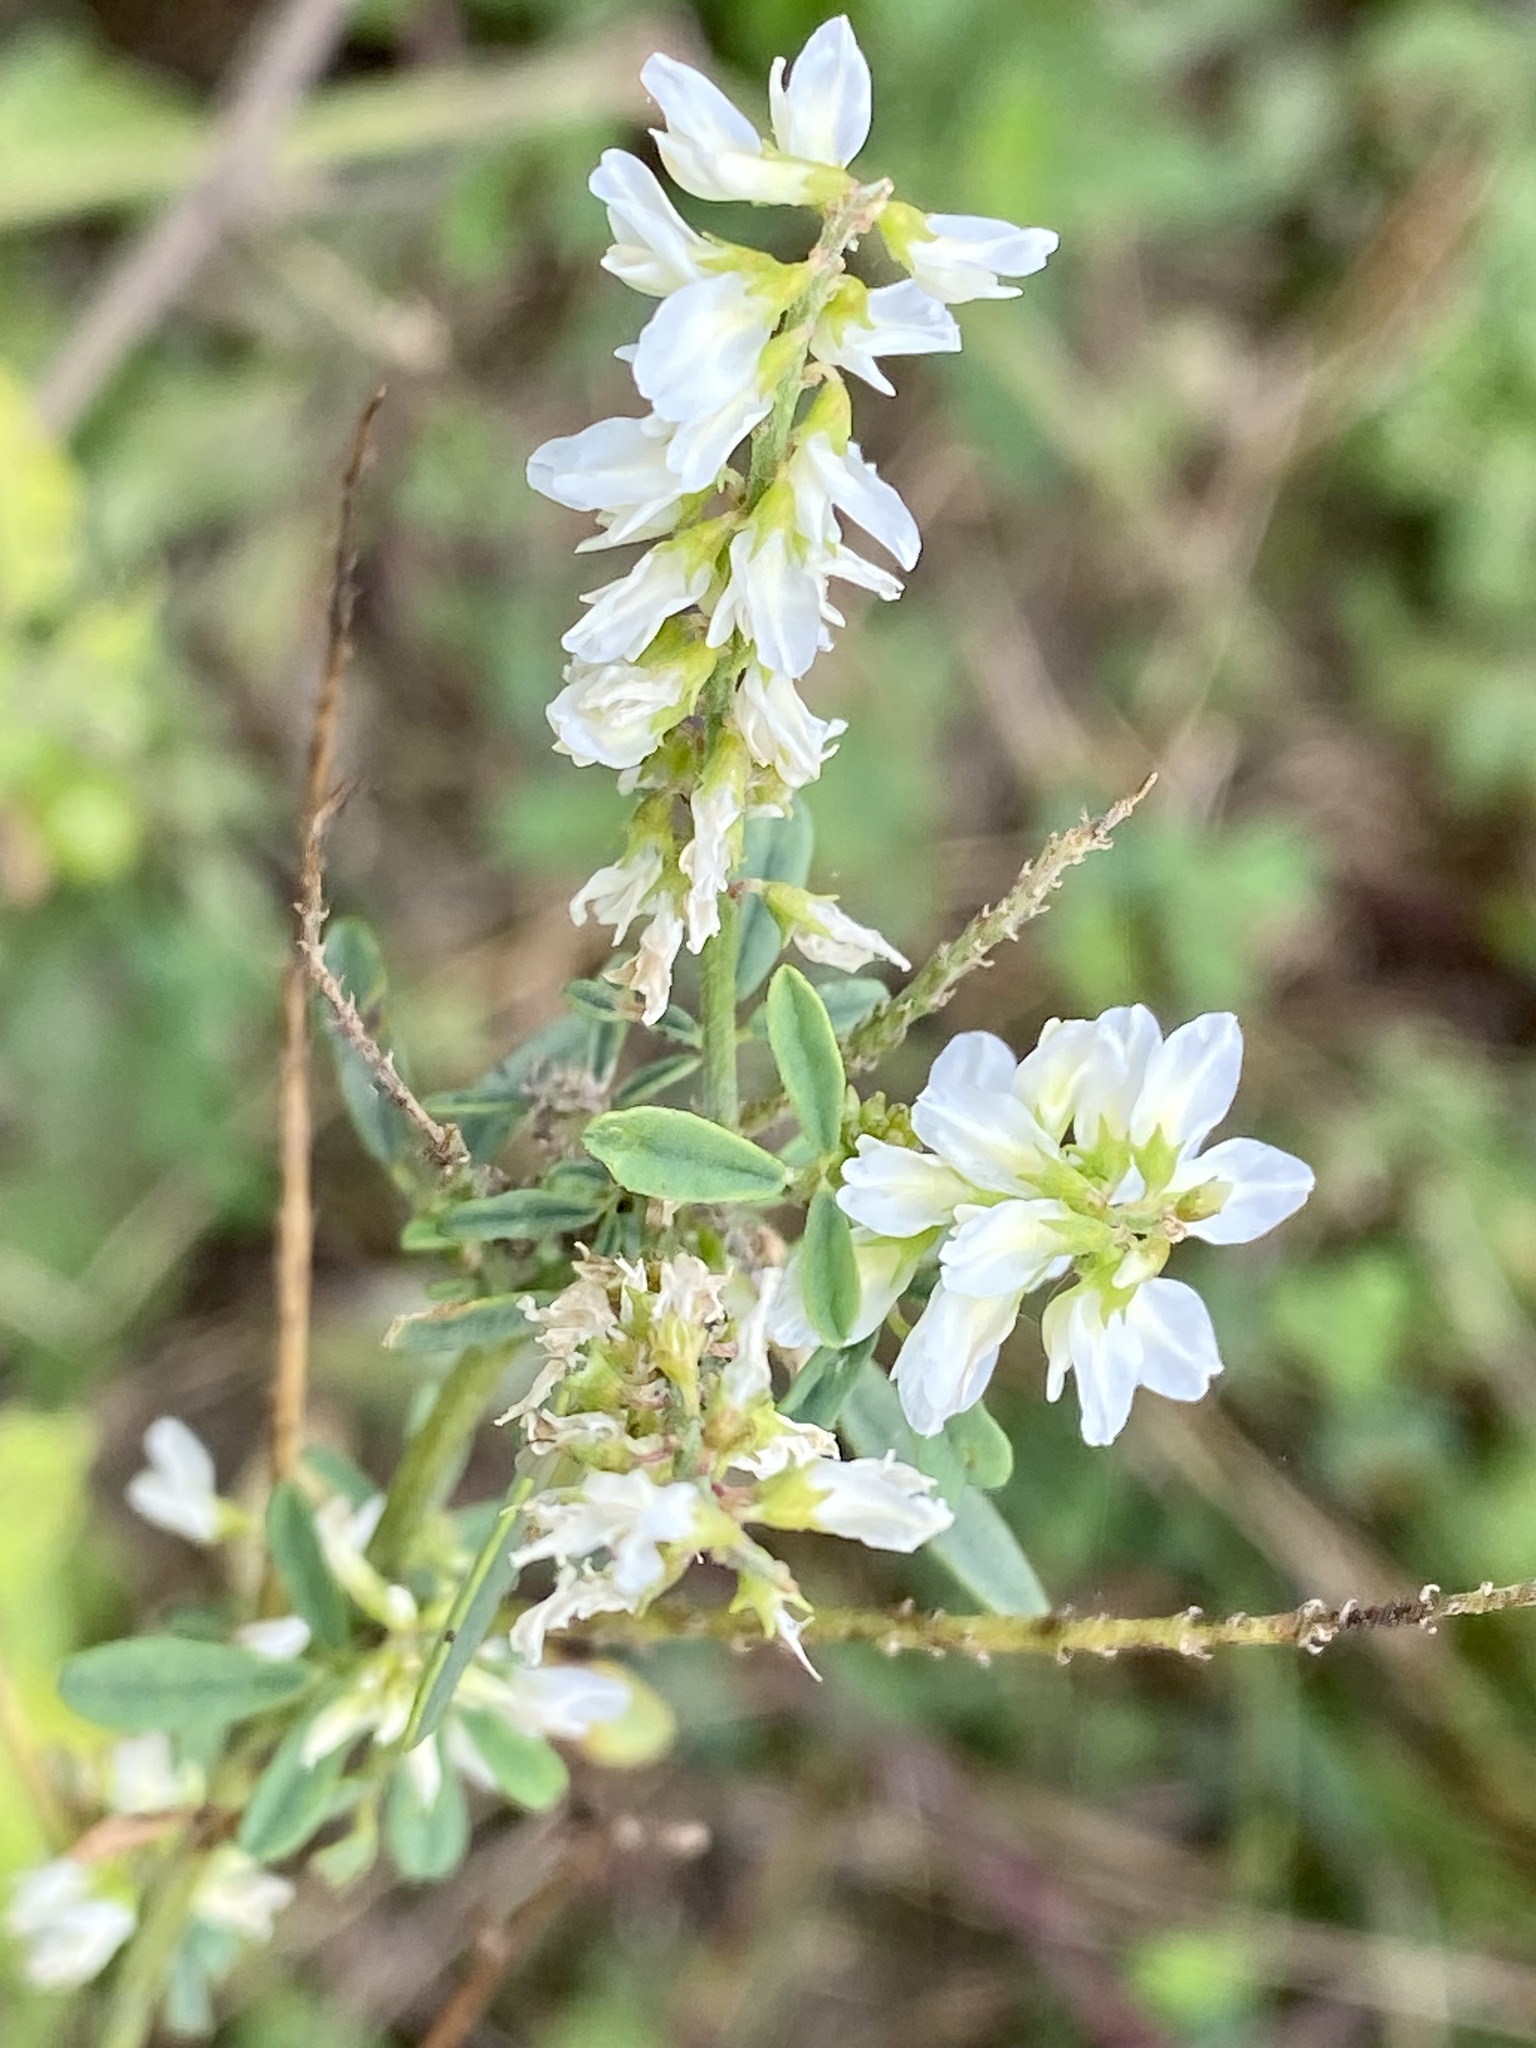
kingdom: Plantae
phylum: Tracheophyta
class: Magnoliopsida
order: Fabales
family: Fabaceae
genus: Melilotus
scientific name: Melilotus albus
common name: White melilot
